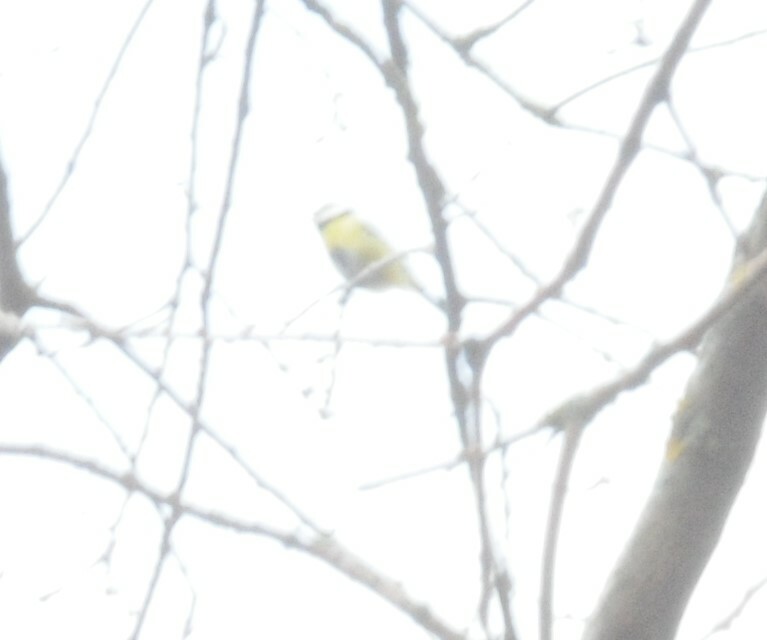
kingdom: Animalia
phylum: Chordata
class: Aves
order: Passeriformes
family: Paridae
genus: Cyanistes
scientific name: Cyanistes caeruleus
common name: Eurasian blue tit
